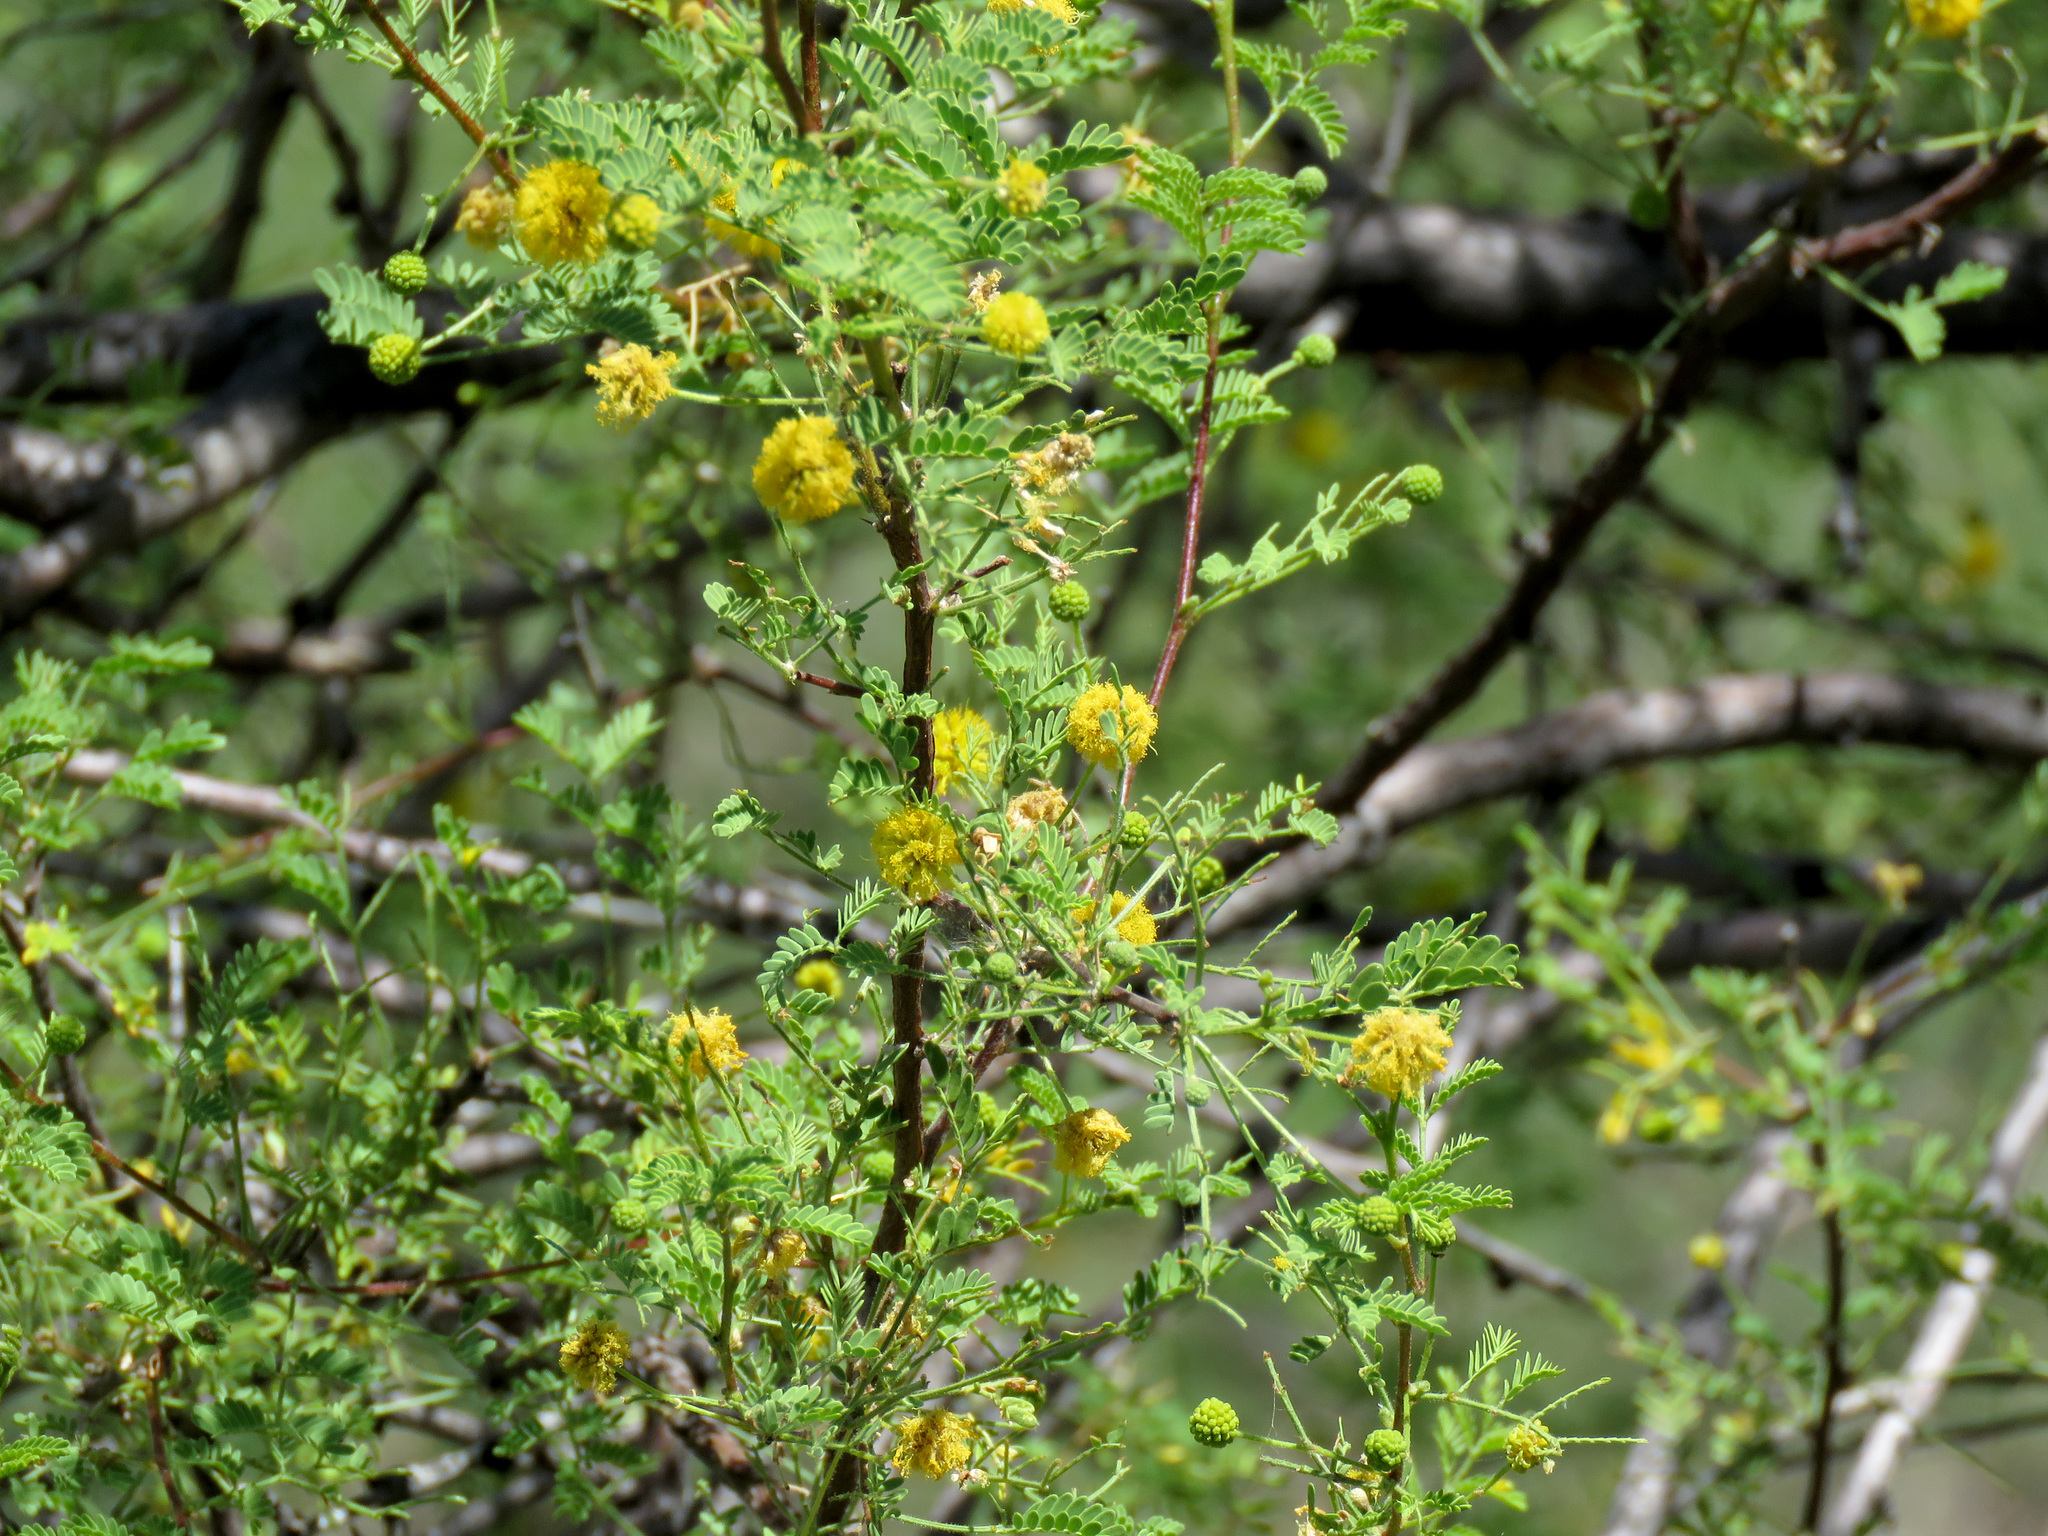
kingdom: Plantae
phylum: Tracheophyta
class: Magnoliopsida
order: Fabales
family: Fabaceae
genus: Vachellia
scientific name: Vachellia constricta
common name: Mescat acacia
